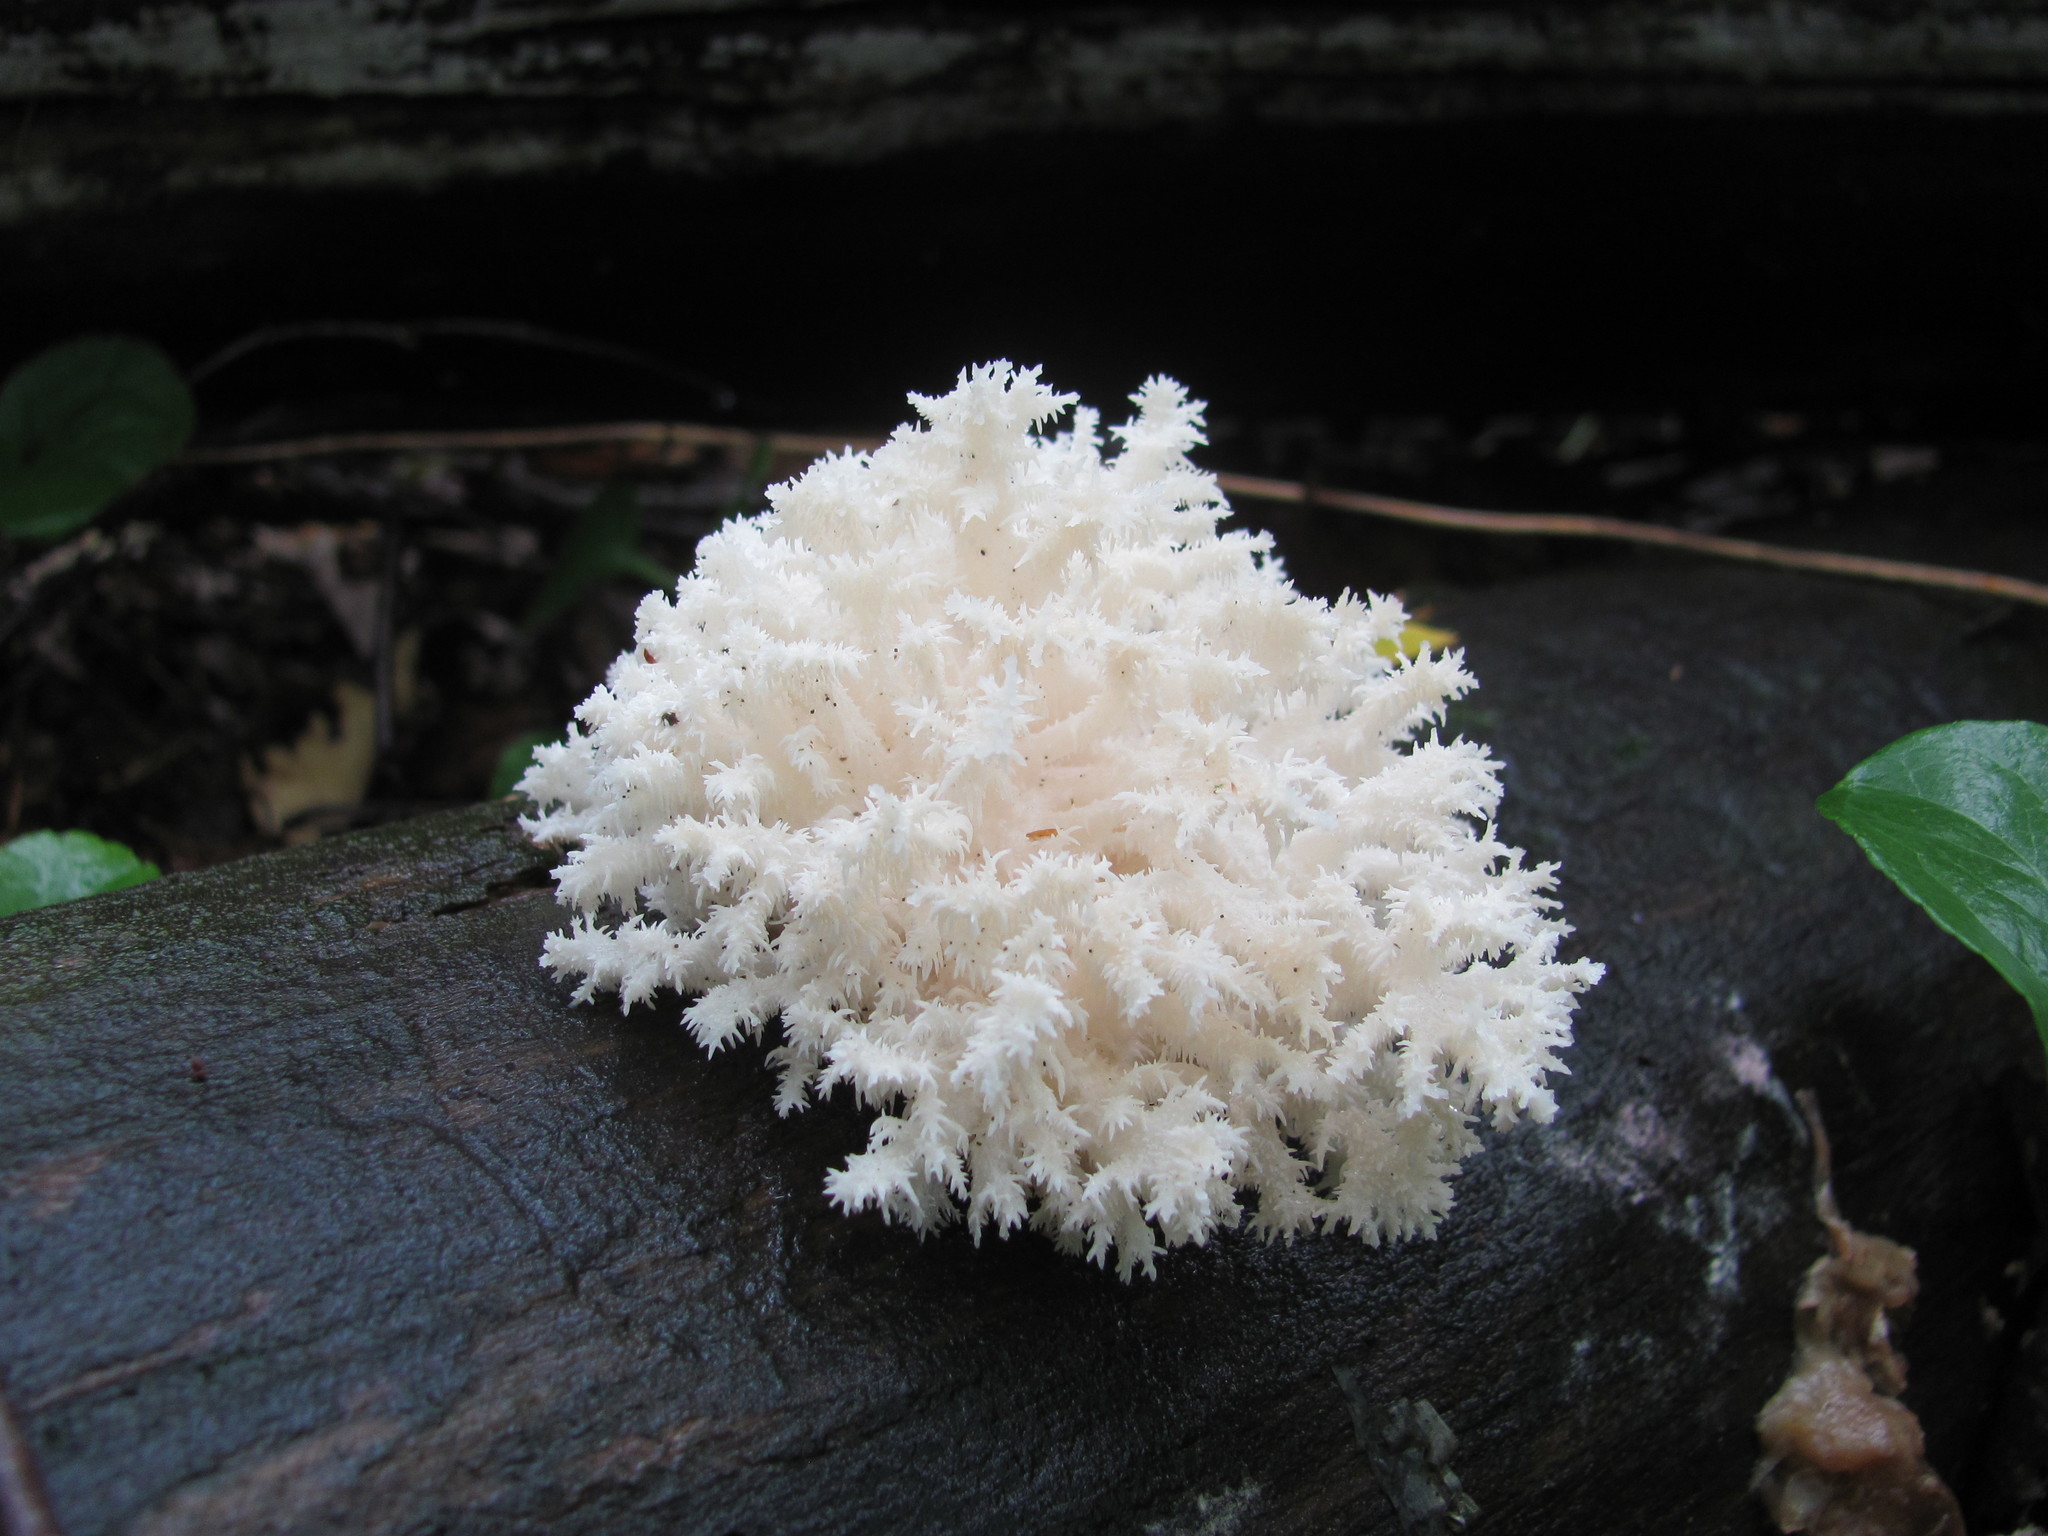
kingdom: Fungi
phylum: Basidiomycota
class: Agaricomycetes
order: Russulales
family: Hericiaceae
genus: Hericium
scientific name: Hericium coralloides
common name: Coral tooth
